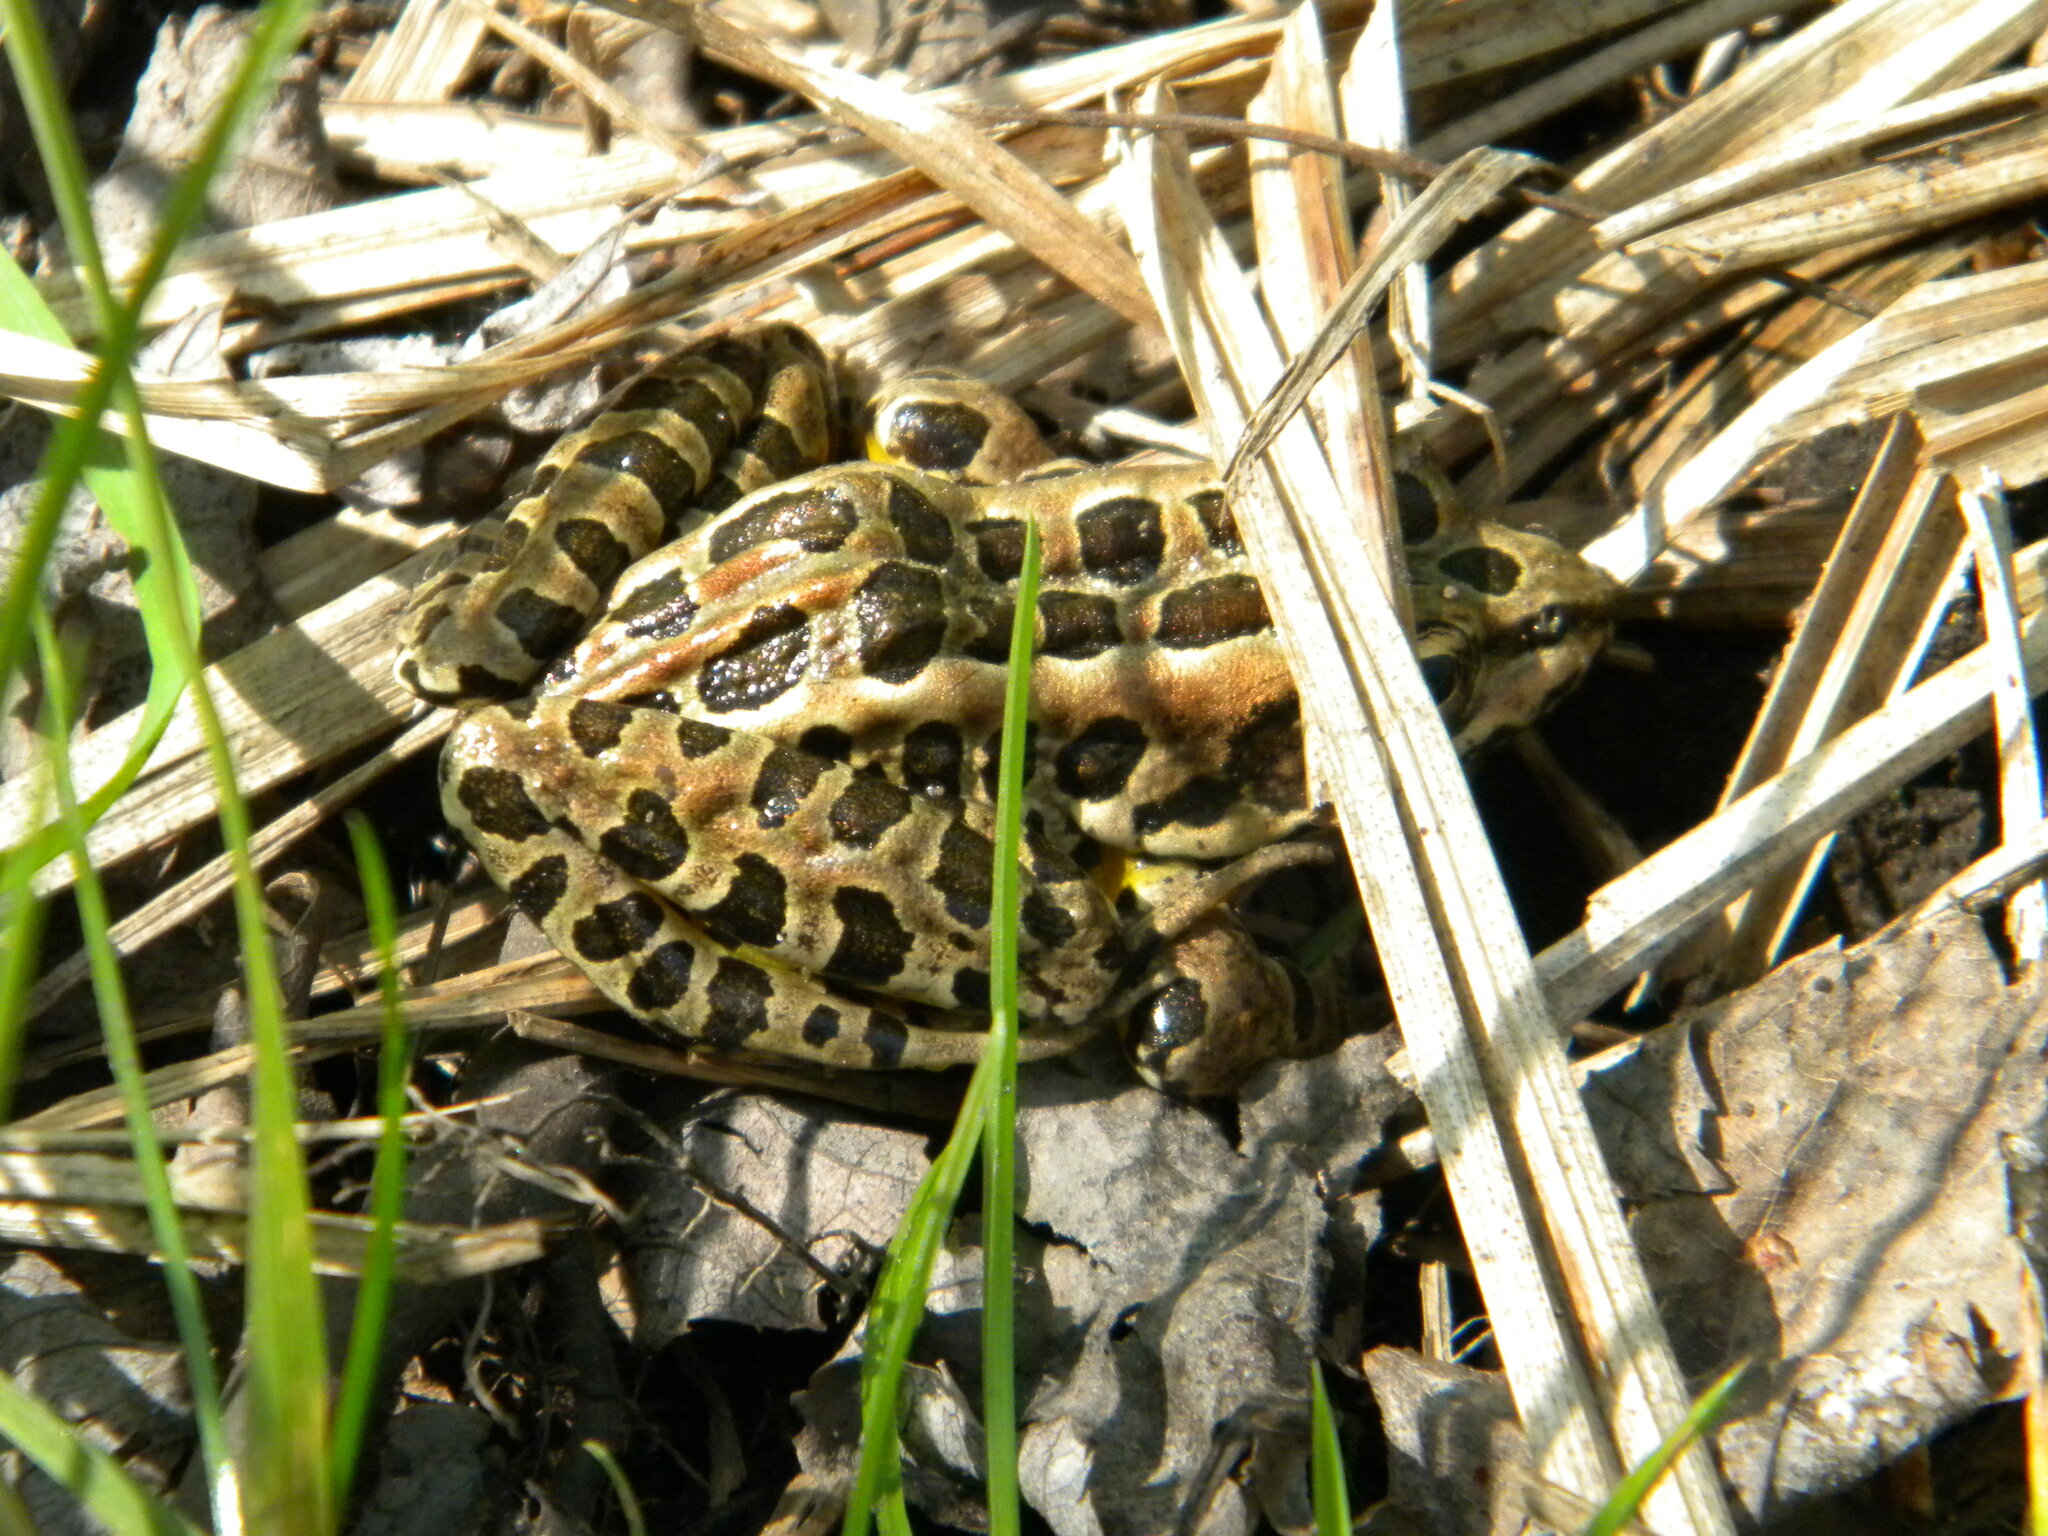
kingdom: Animalia
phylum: Chordata
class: Amphibia
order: Anura
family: Ranidae
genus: Lithobates
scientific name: Lithobates palustris
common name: Pickerel frog
